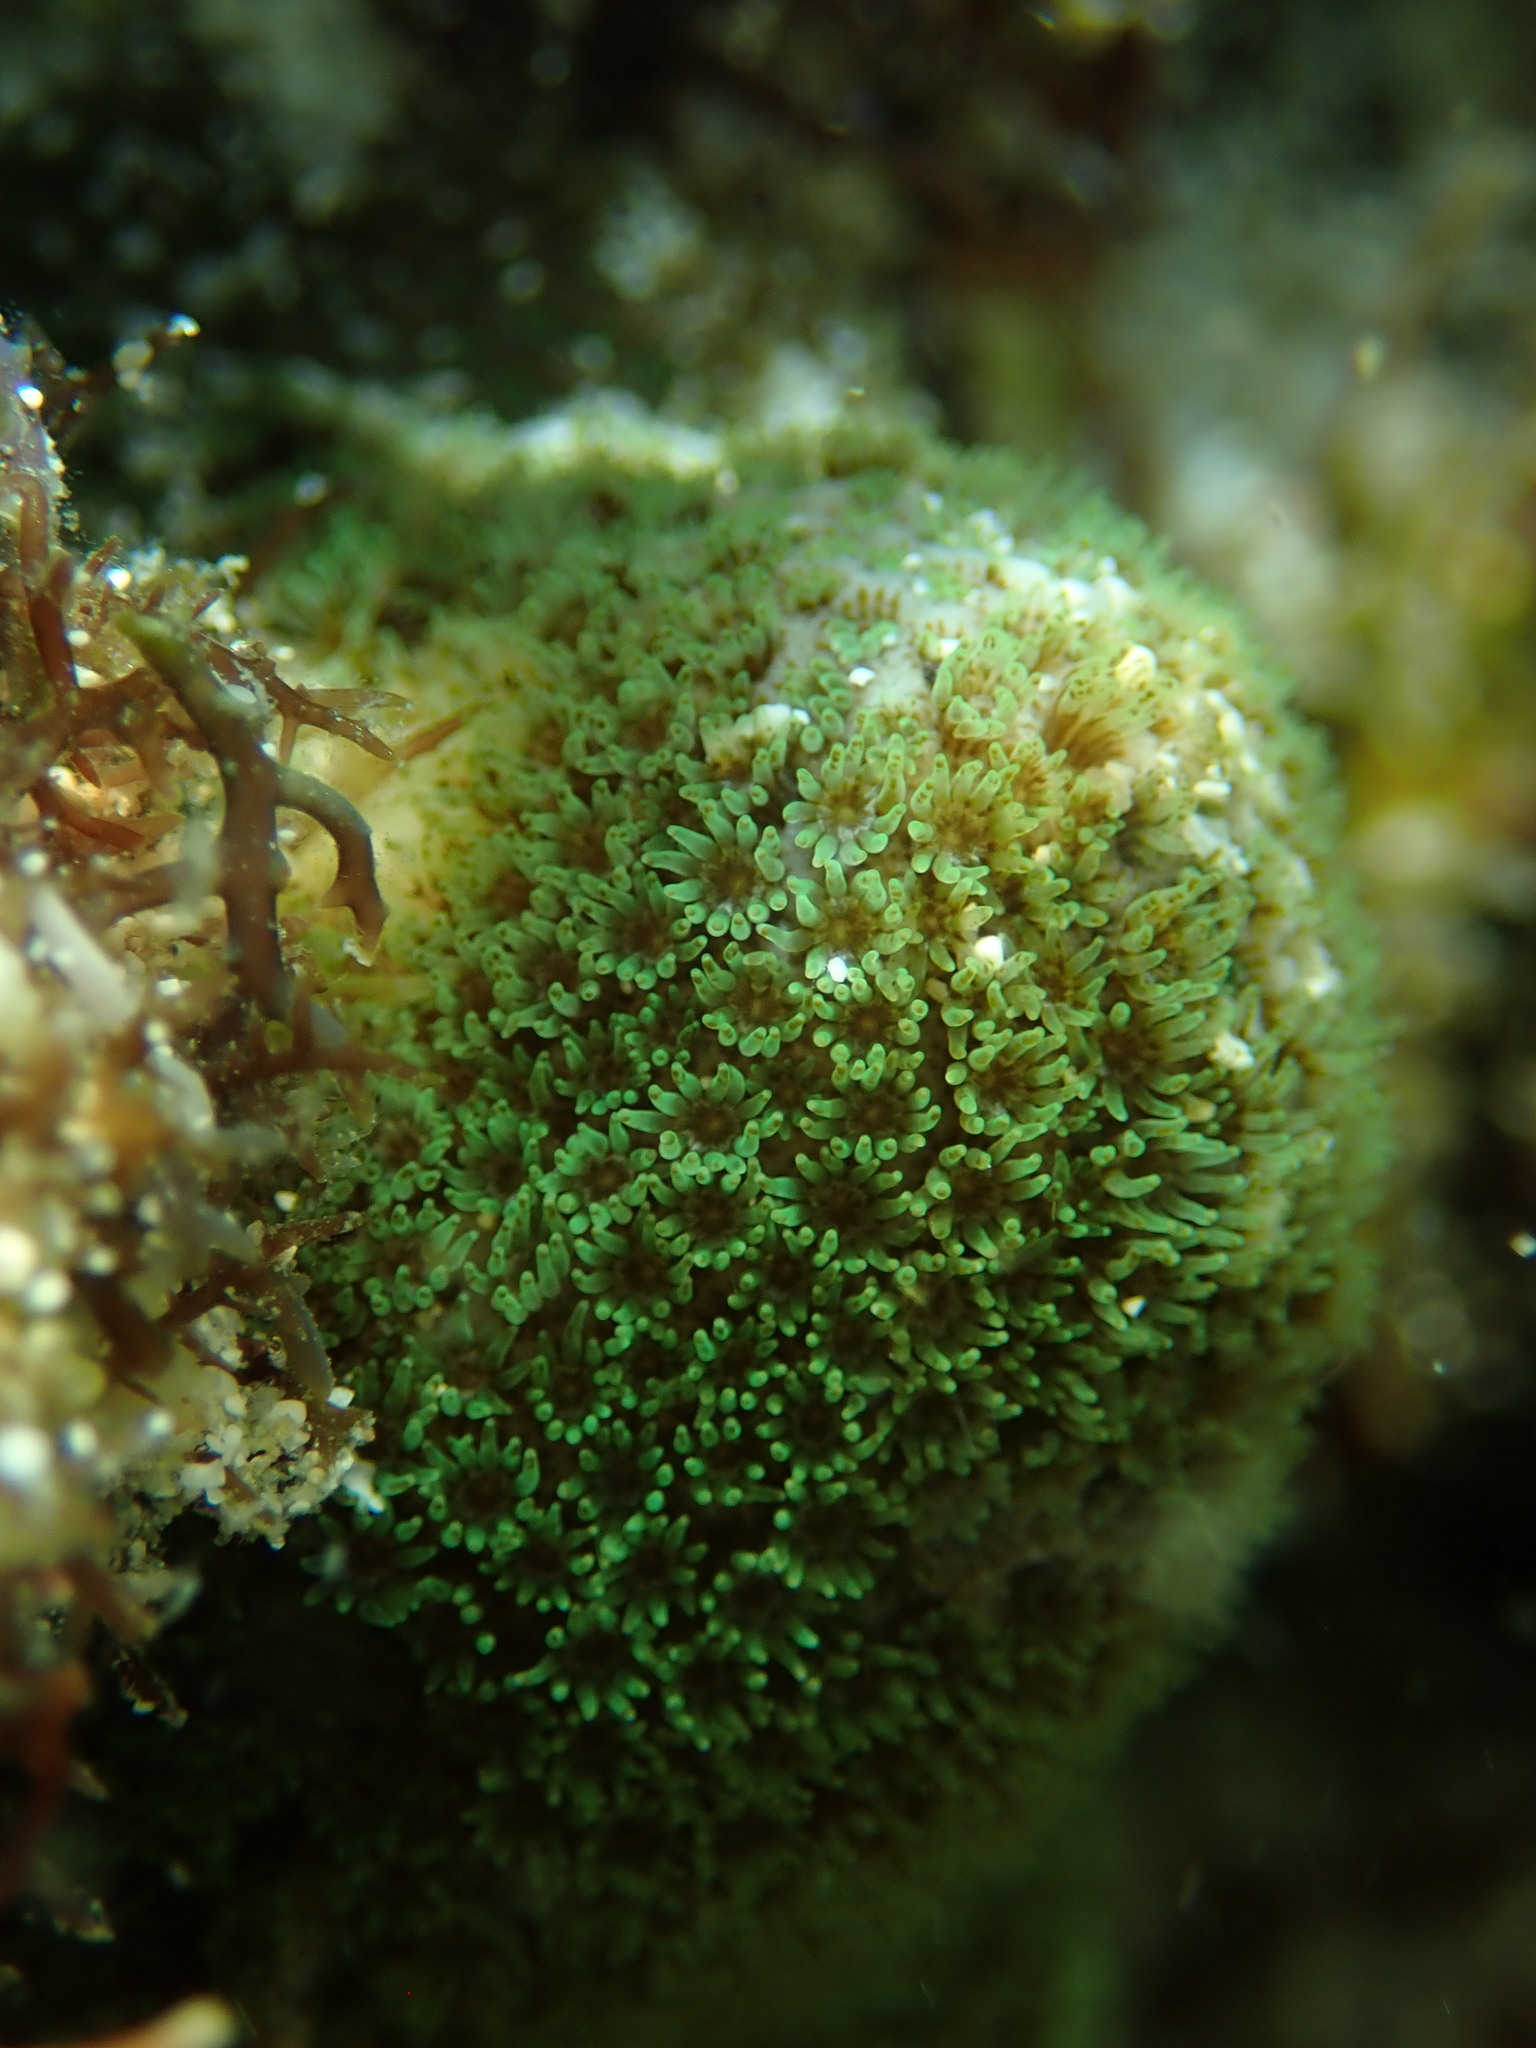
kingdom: Animalia
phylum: Cnidaria
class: Anthozoa
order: Scleractinia
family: Poritidae
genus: Porites
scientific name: Porites panamensis
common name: Hump coral
